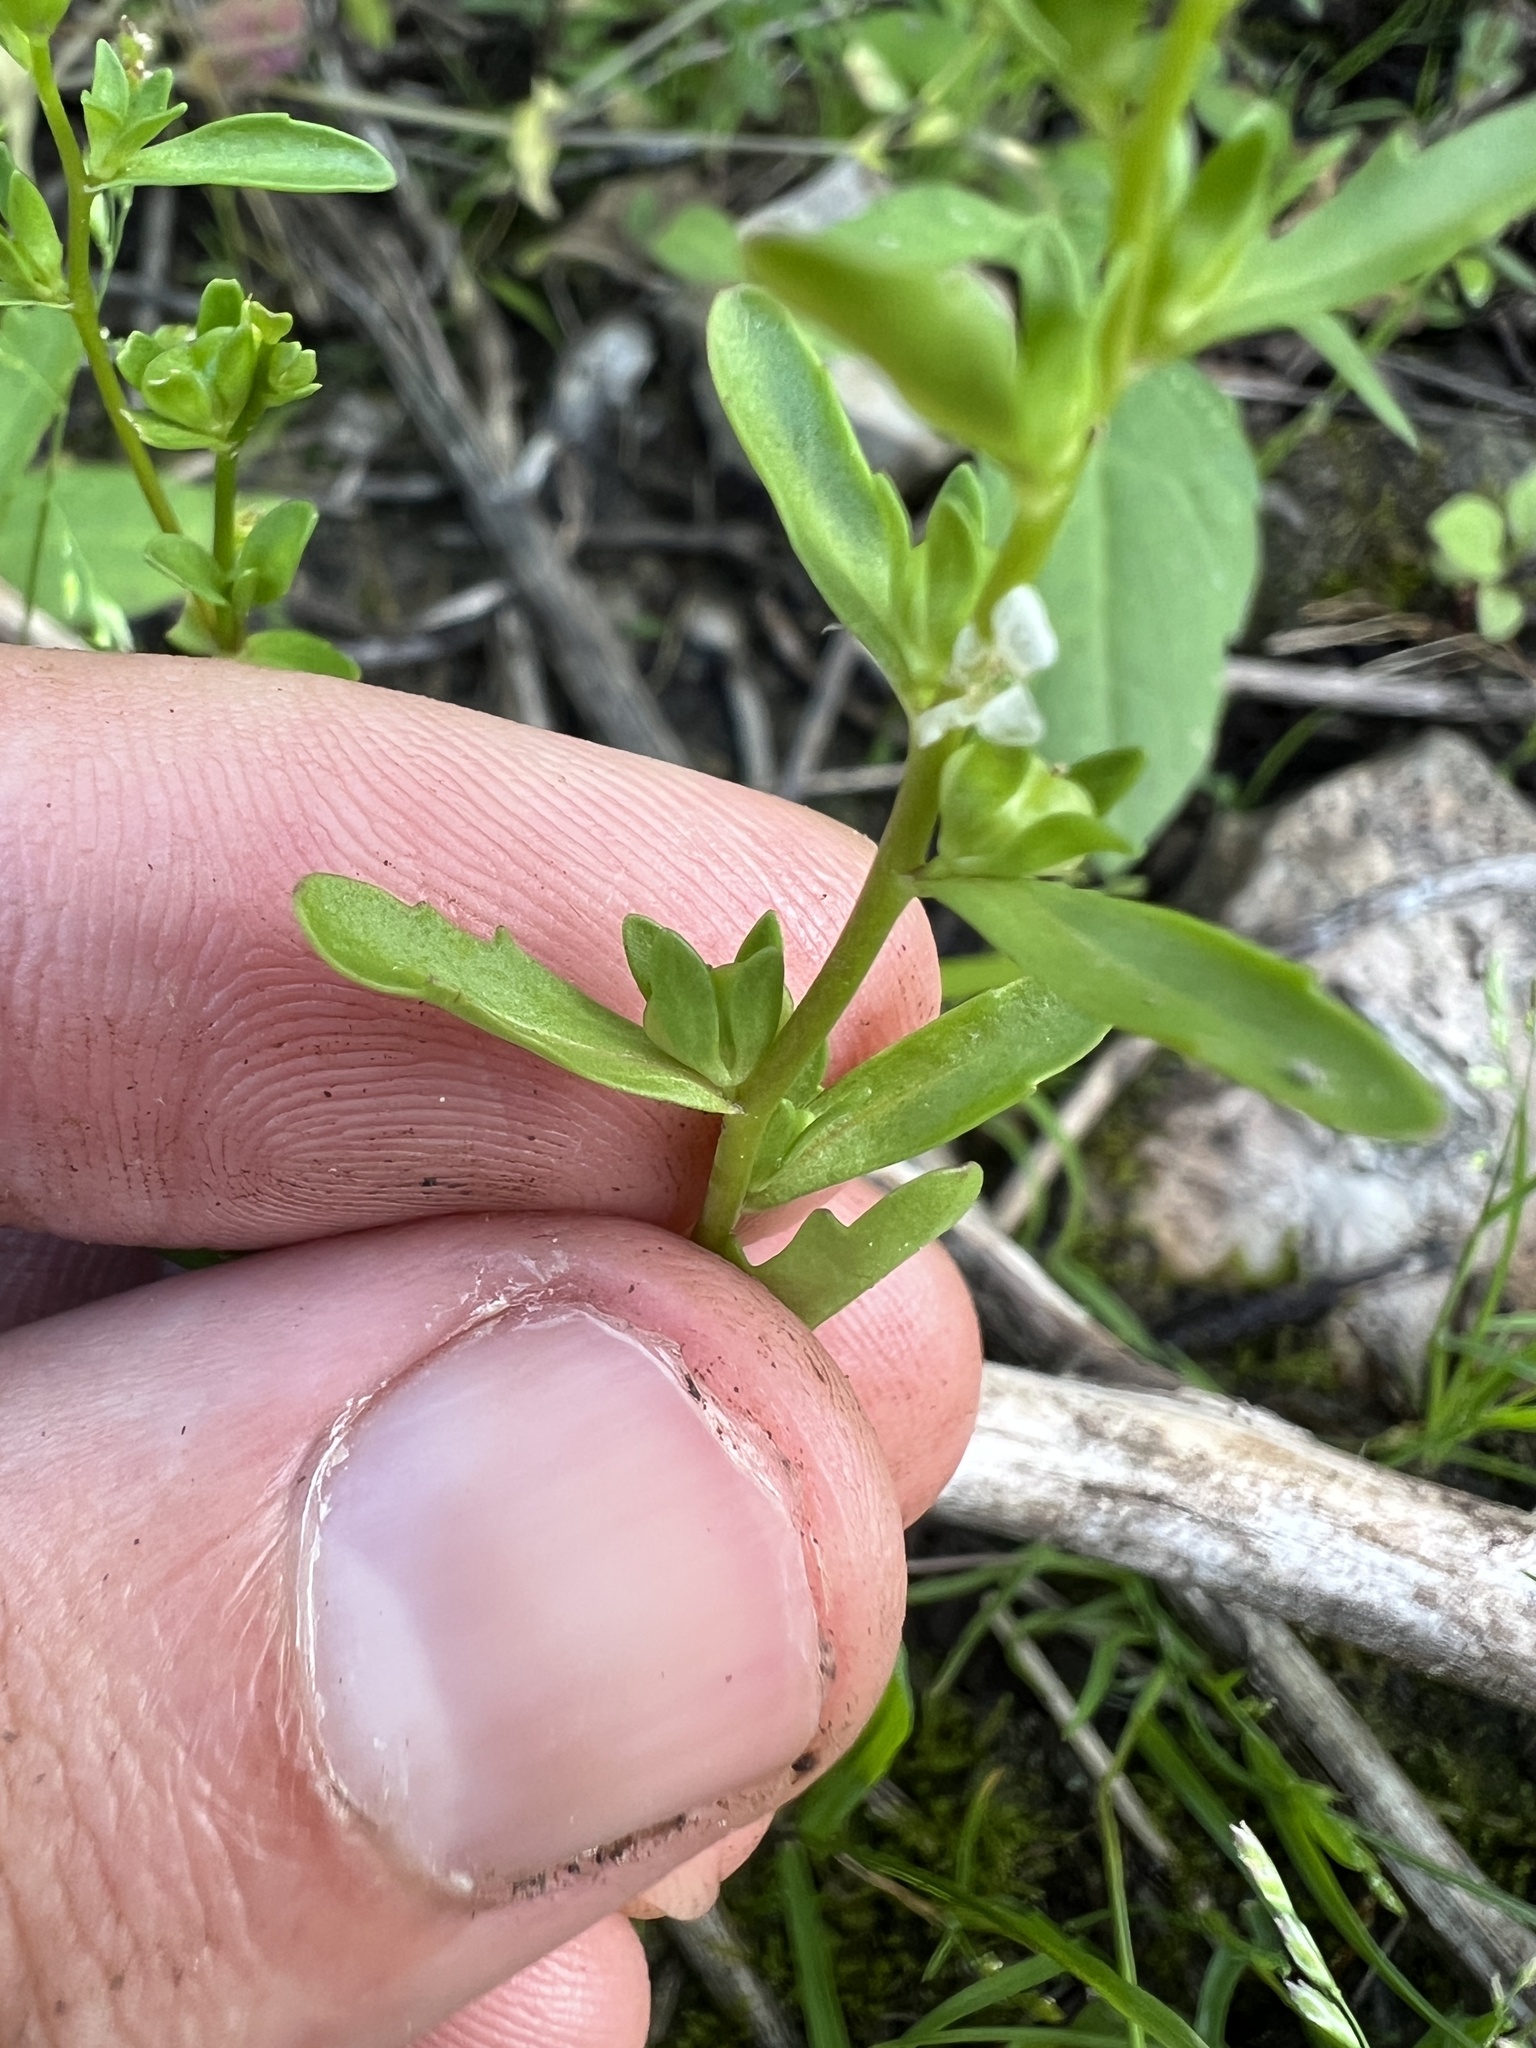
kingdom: Plantae
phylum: Tracheophyta
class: Magnoliopsida
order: Lamiales
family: Plantaginaceae
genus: Veronica
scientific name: Veronica peregrina
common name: Neckweed
